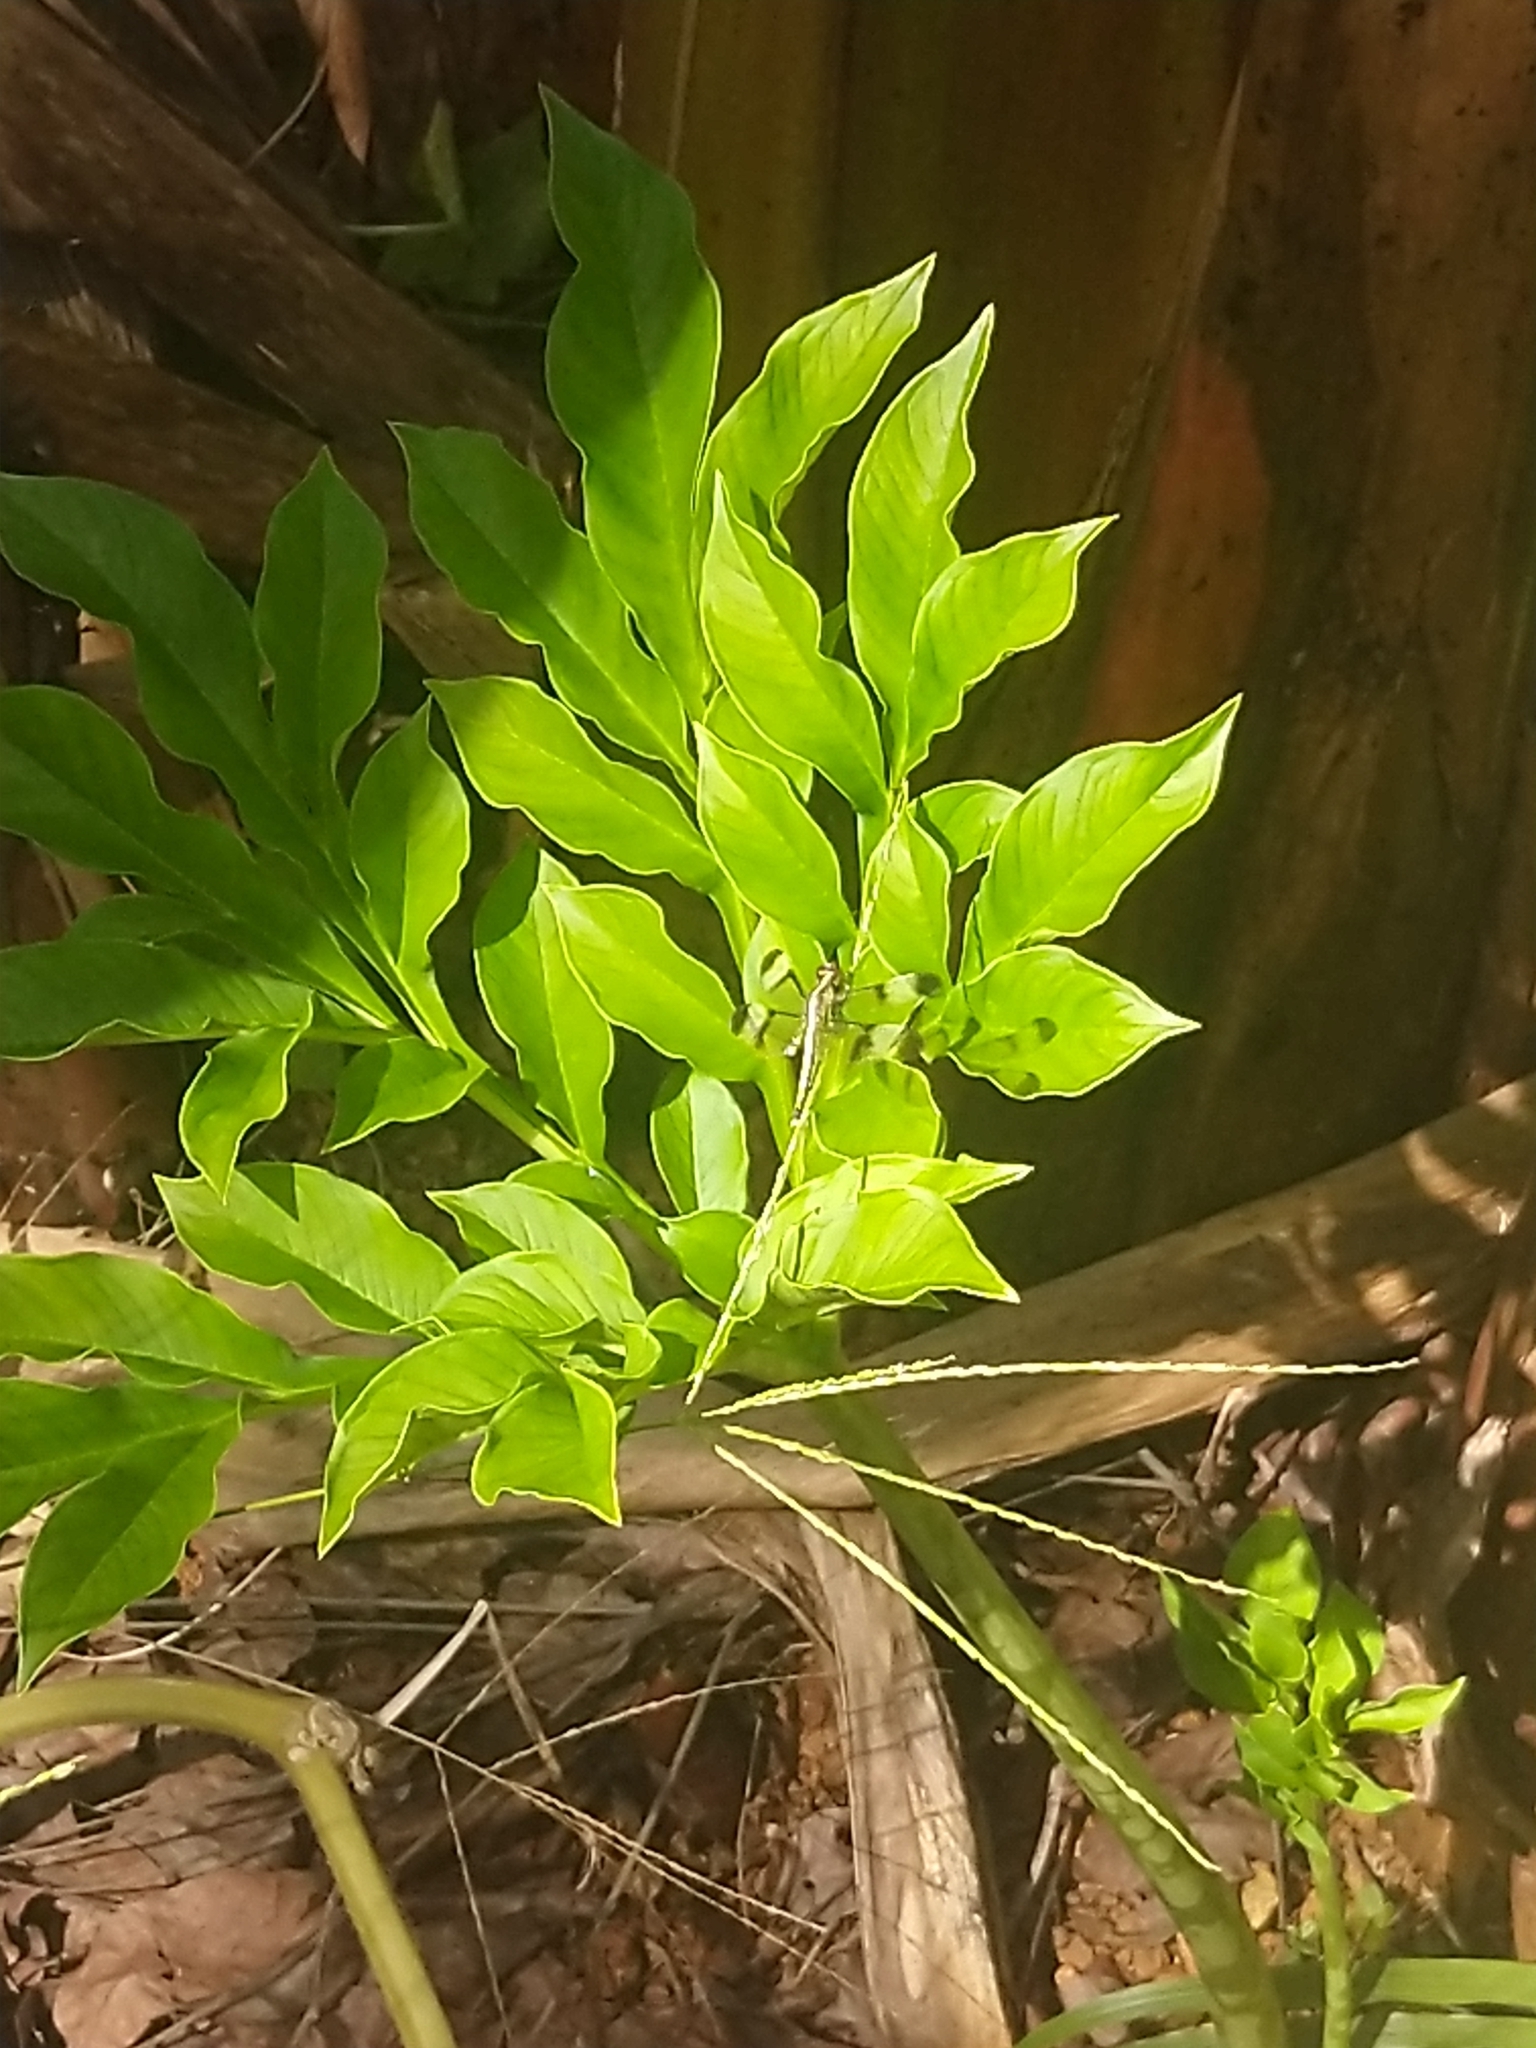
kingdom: Animalia
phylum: Arthropoda
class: Insecta
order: Odonata
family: Libellulidae
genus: Neurothemis
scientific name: Neurothemis tullia
